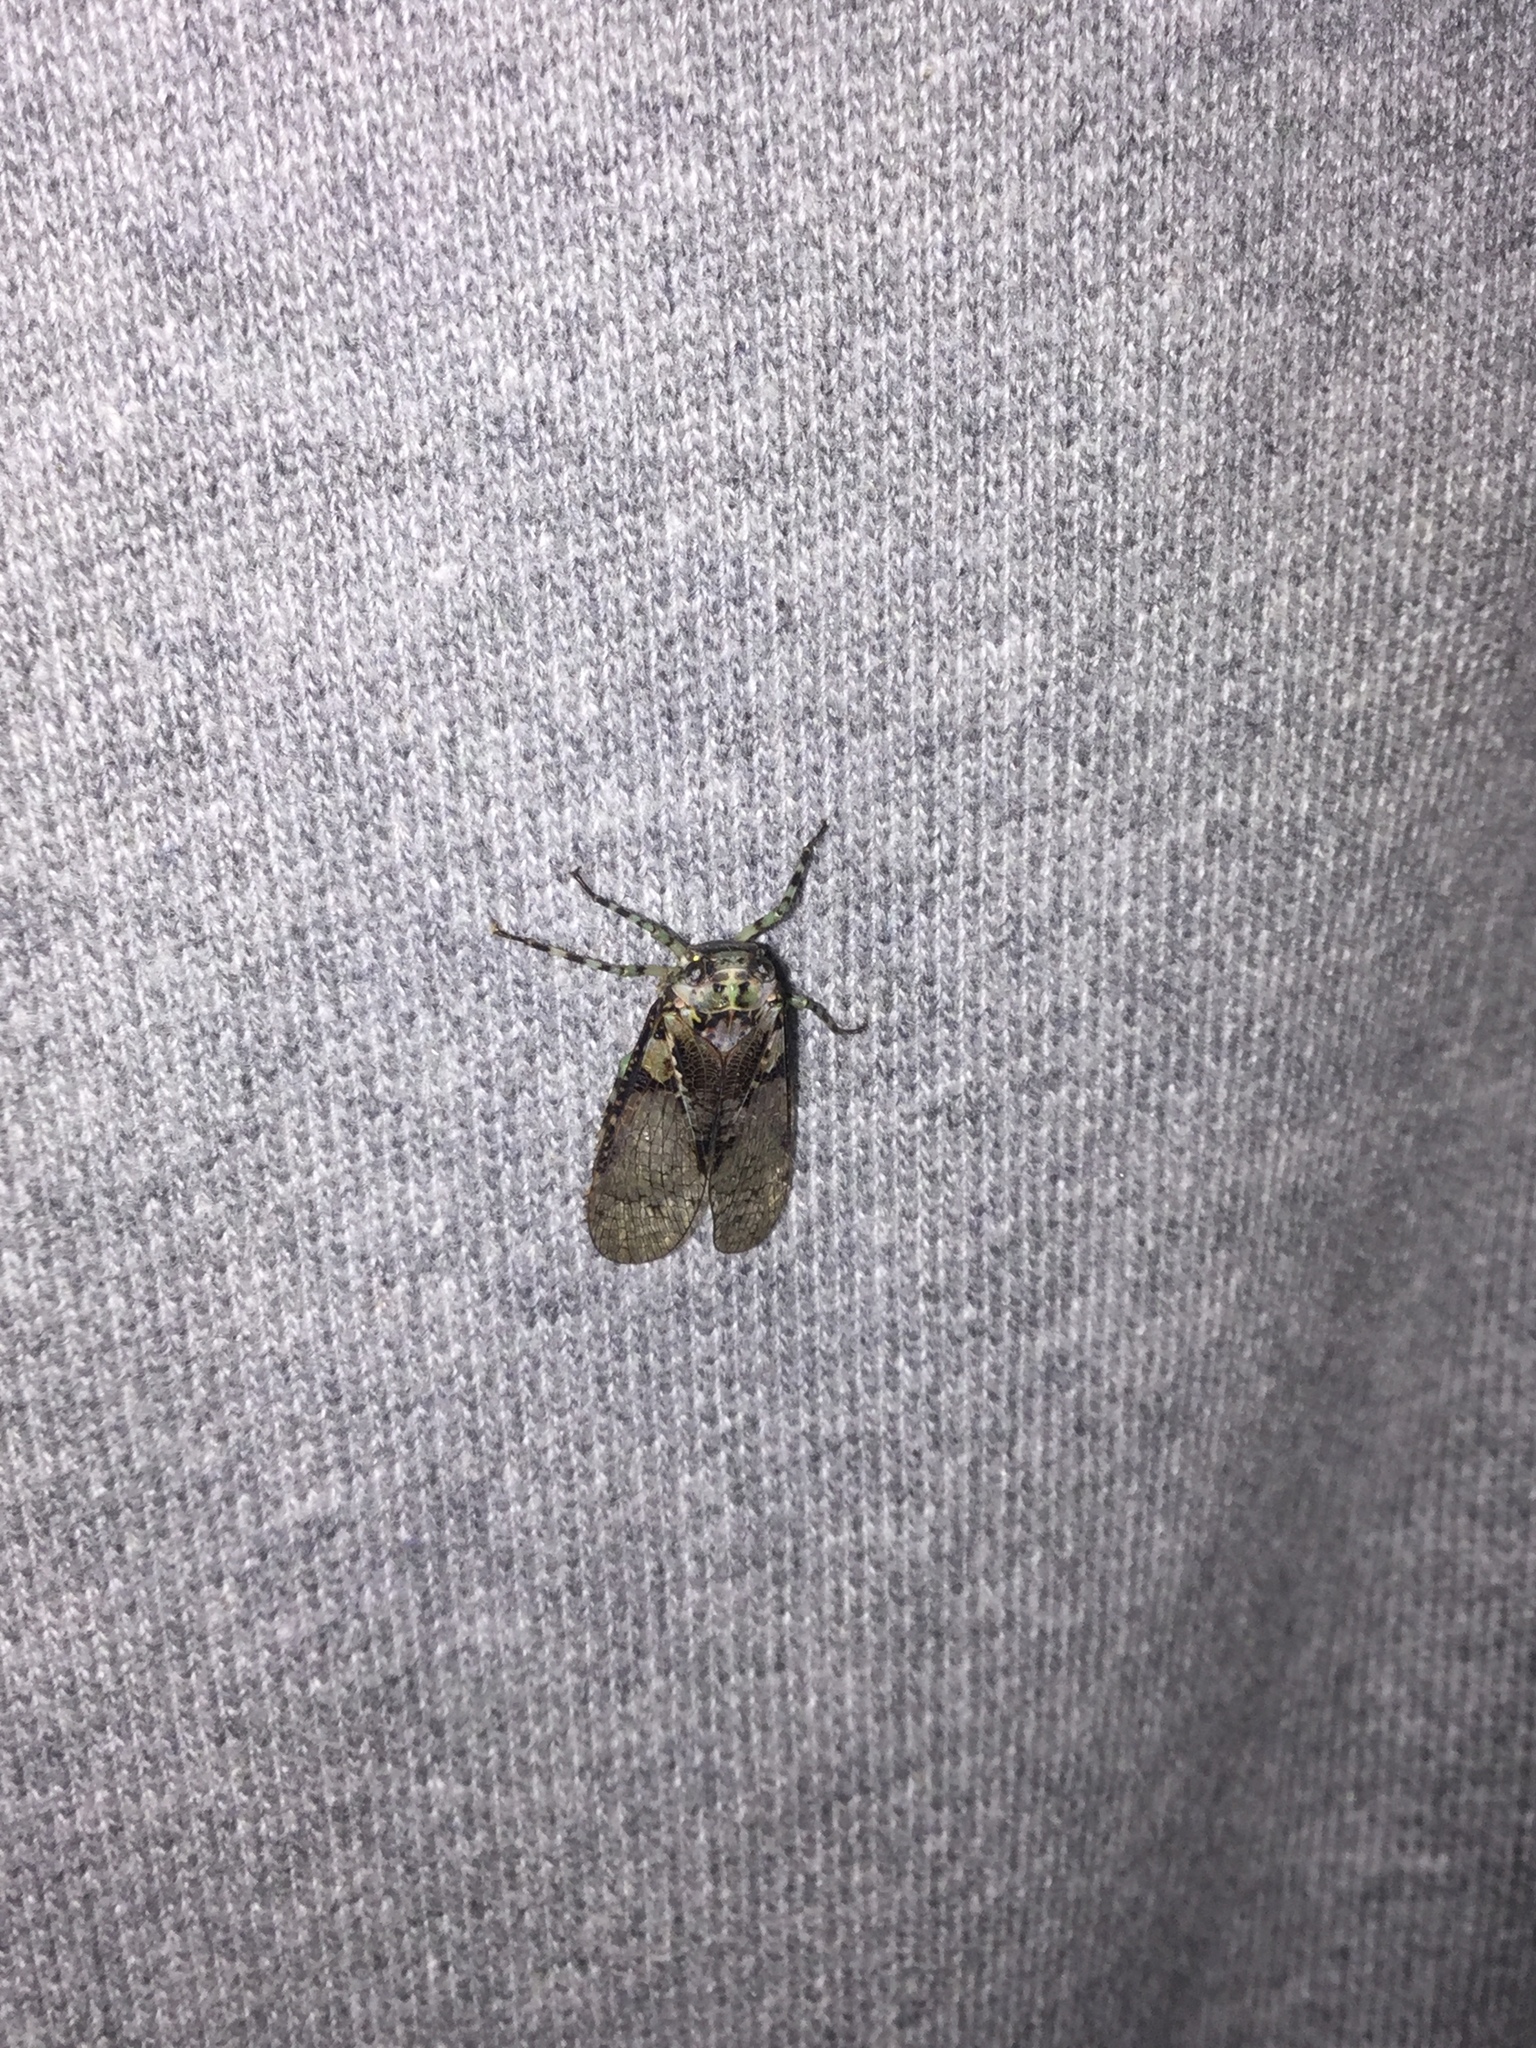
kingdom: Animalia
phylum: Arthropoda
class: Insecta
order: Hemiptera
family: Fulgoridae
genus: Calyptoproctus
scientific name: Calyptoproctus marmoratus
